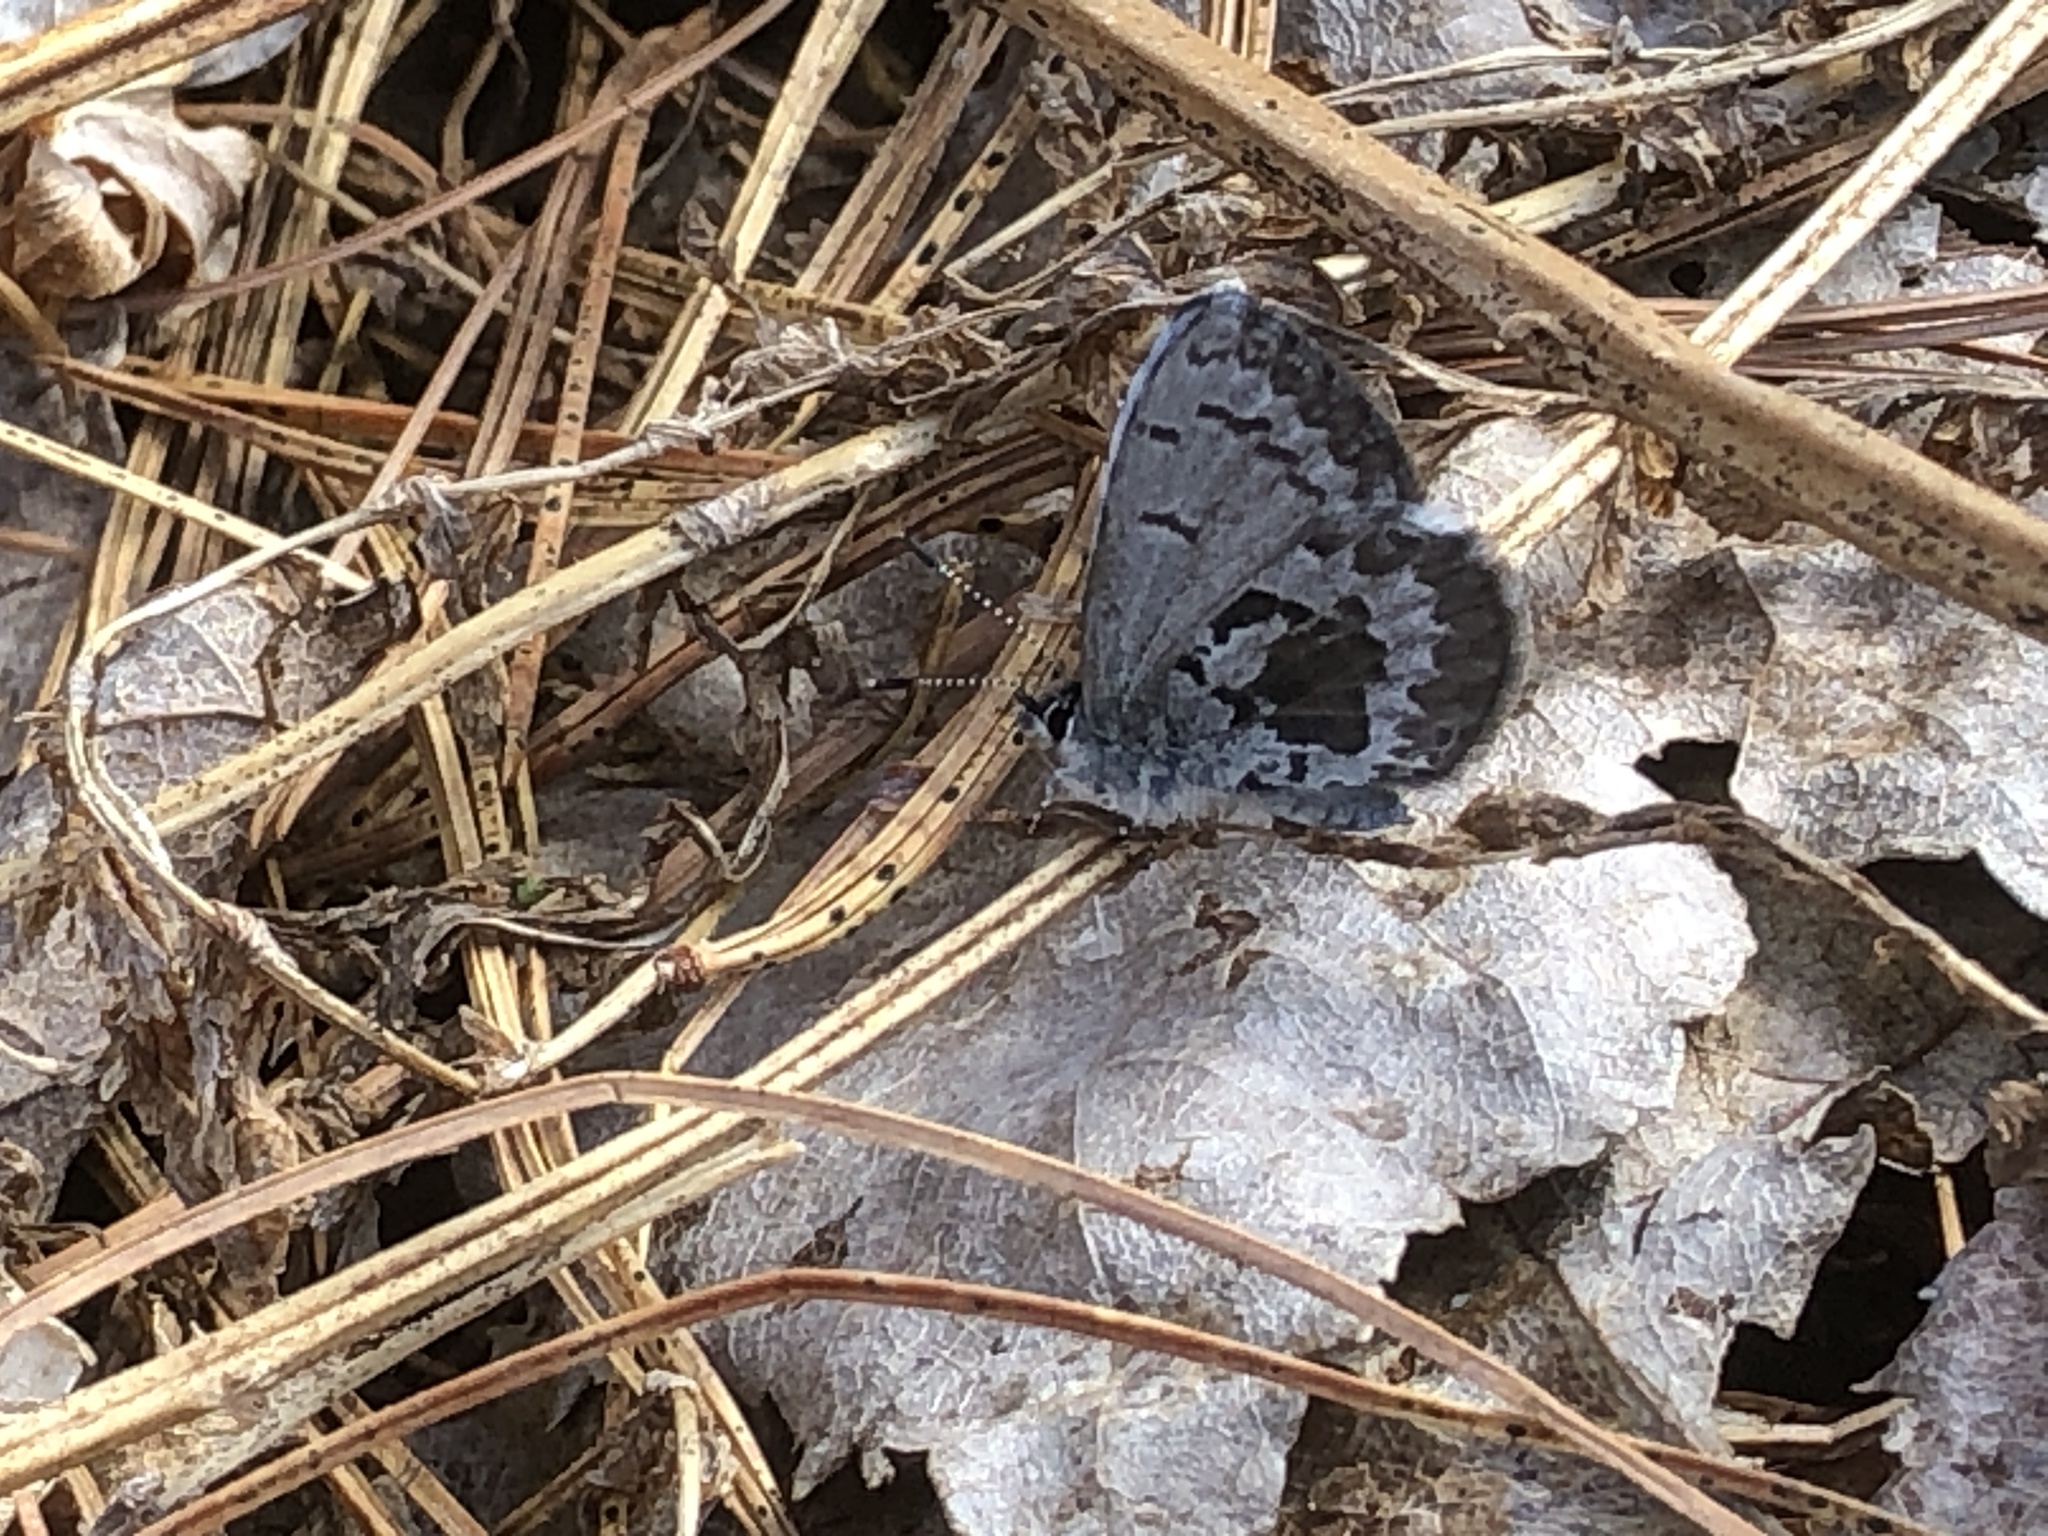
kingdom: Animalia
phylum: Arthropoda
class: Insecta
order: Lepidoptera
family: Lycaenidae
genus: Celastrina
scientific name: Celastrina ladon
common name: Spring azure
